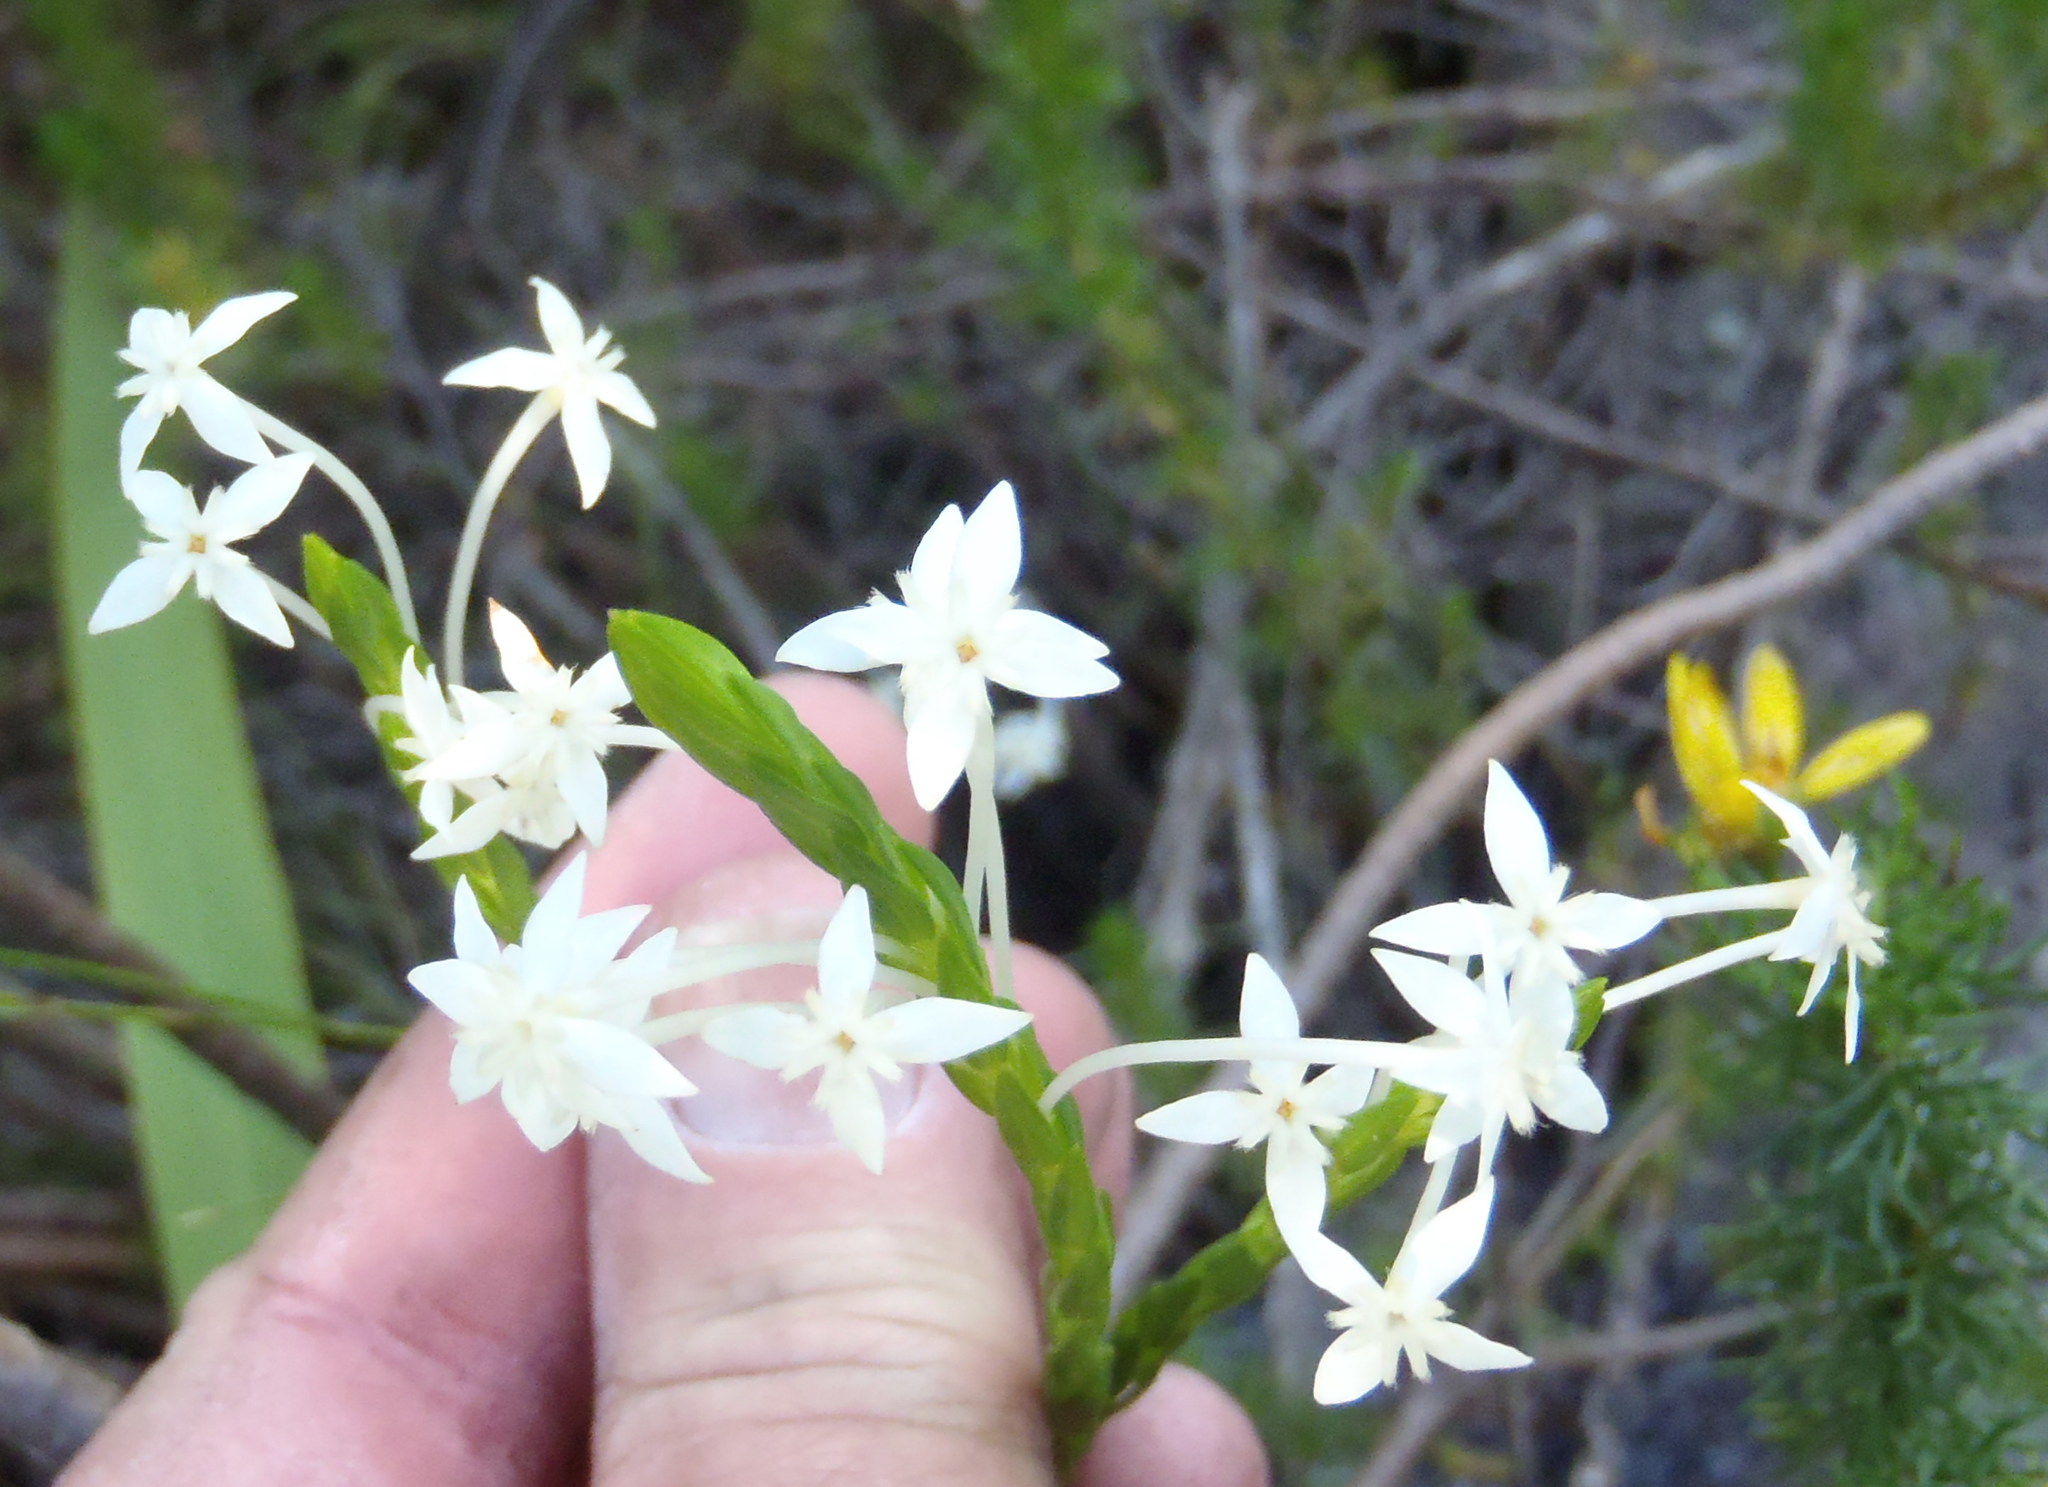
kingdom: Plantae
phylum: Tracheophyta
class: Magnoliopsida
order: Malvales
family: Thymelaeaceae
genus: Struthiola
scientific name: Struthiola myrsinites
